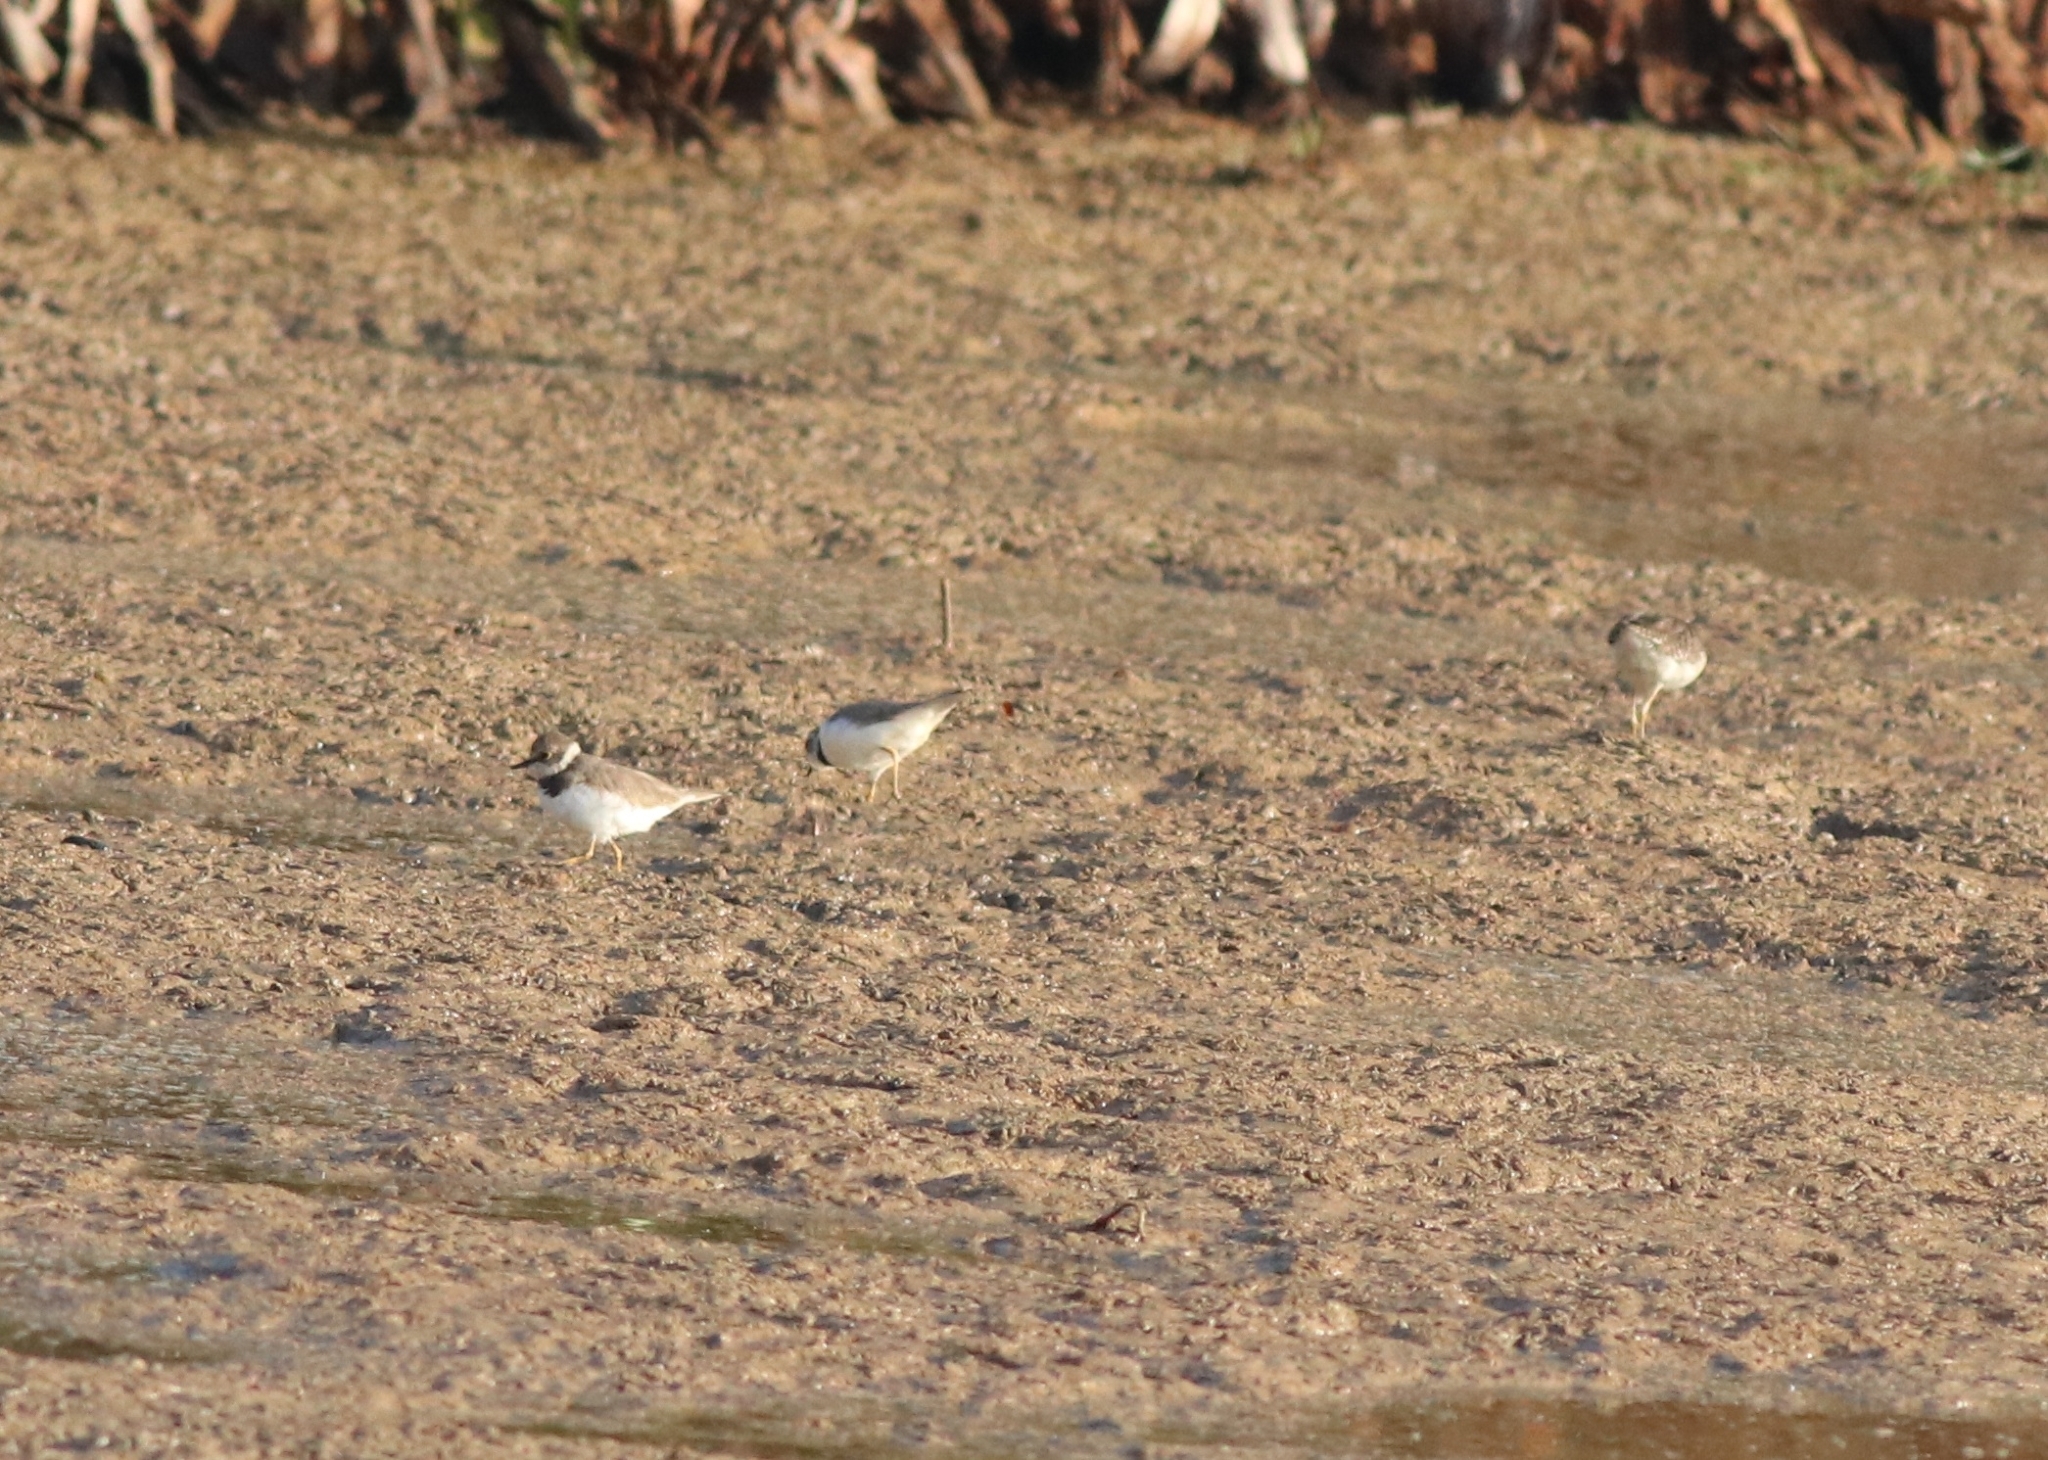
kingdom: Animalia
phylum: Chordata
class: Aves
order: Charadriiformes
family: Charadriidae
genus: Charadrius
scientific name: Charadrius dubius
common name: Little ringed plover
